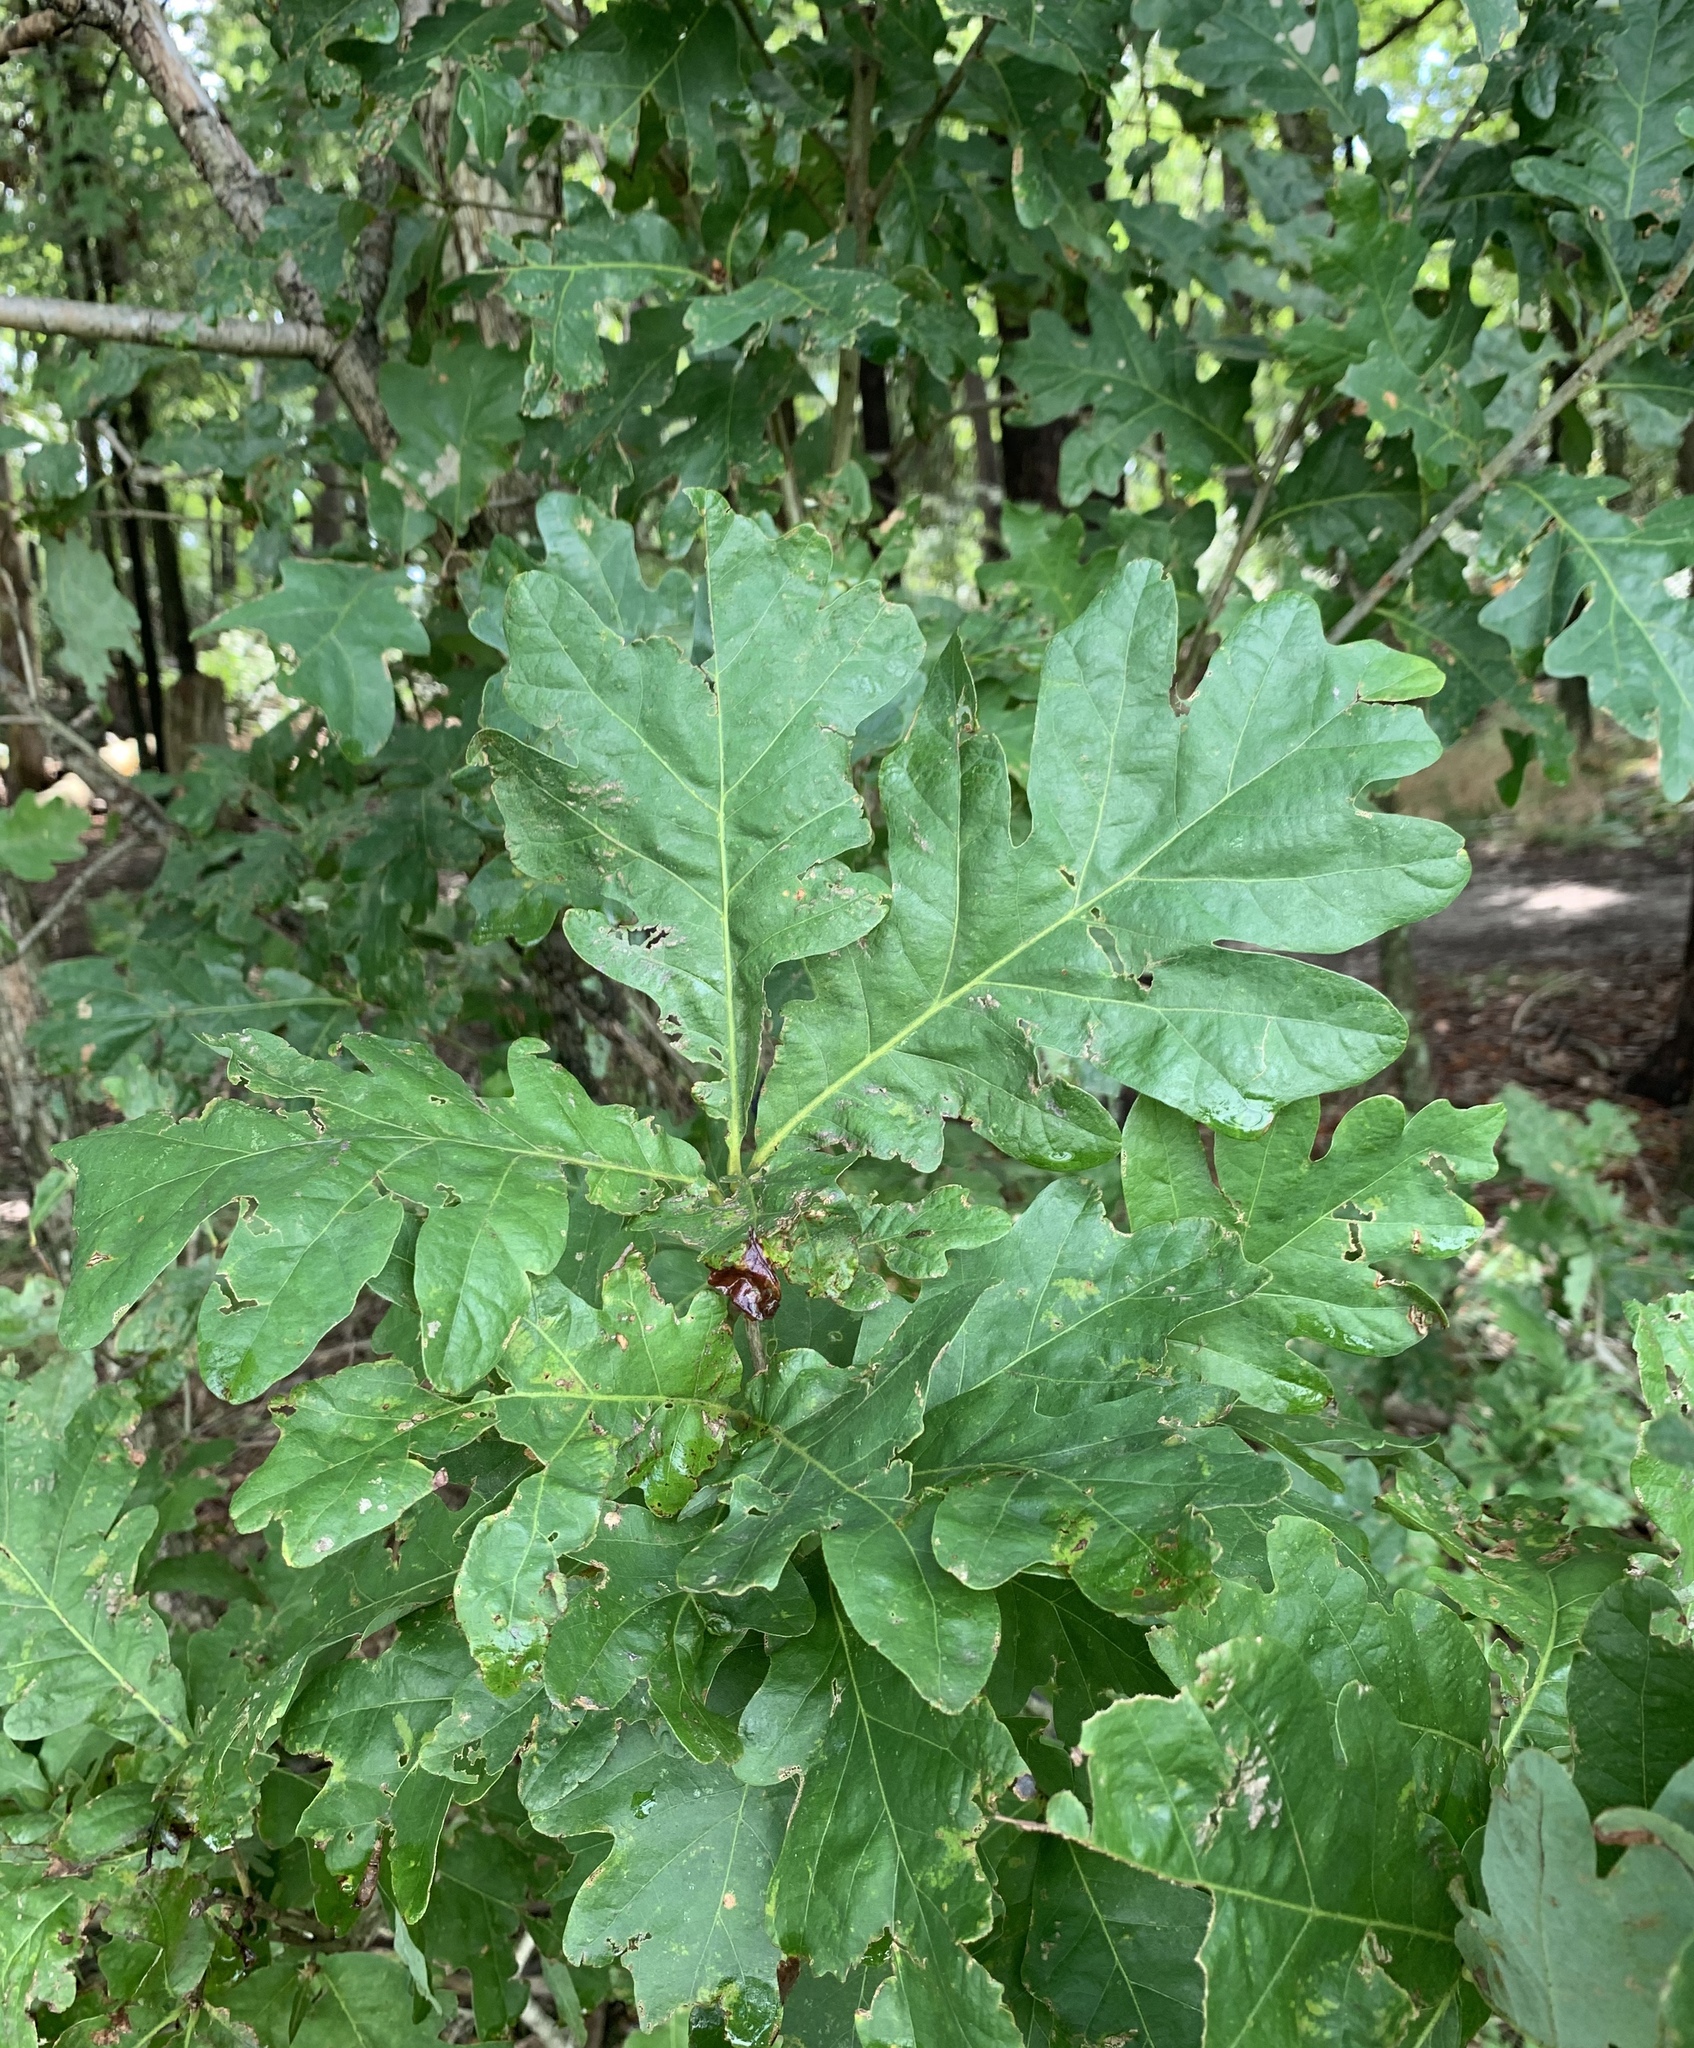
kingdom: Plantae
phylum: Tracheophyta
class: Magnoliopsida
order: Fagales
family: Fagaceae
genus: Quercus
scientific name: Quercus alba
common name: White oak
